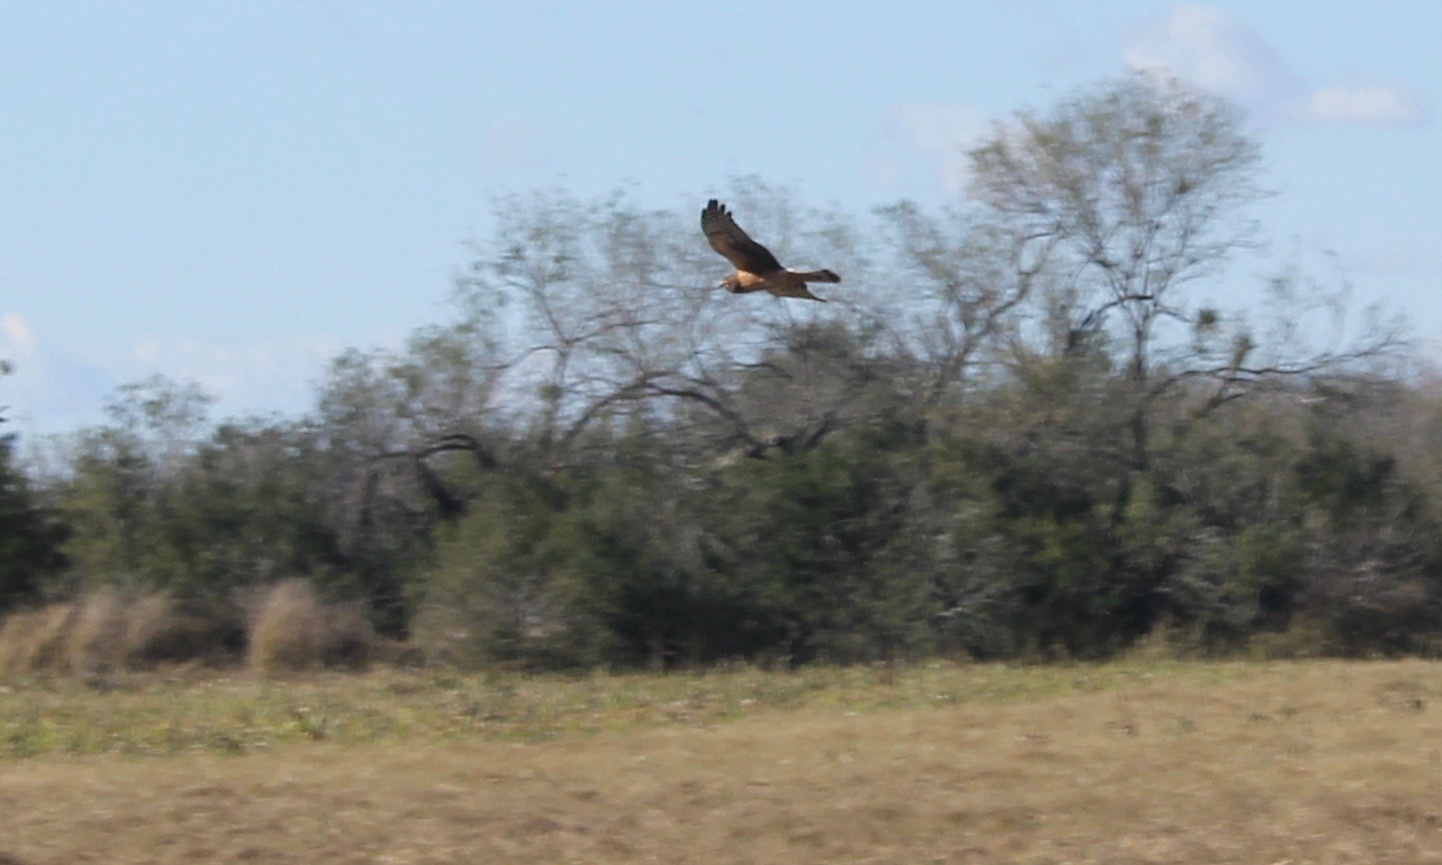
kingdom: Animalia
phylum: Chordata
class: Aves
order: Accipitriformes
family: Accipitridae
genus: Circus
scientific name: Circus cyaneus
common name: Hen harrier
